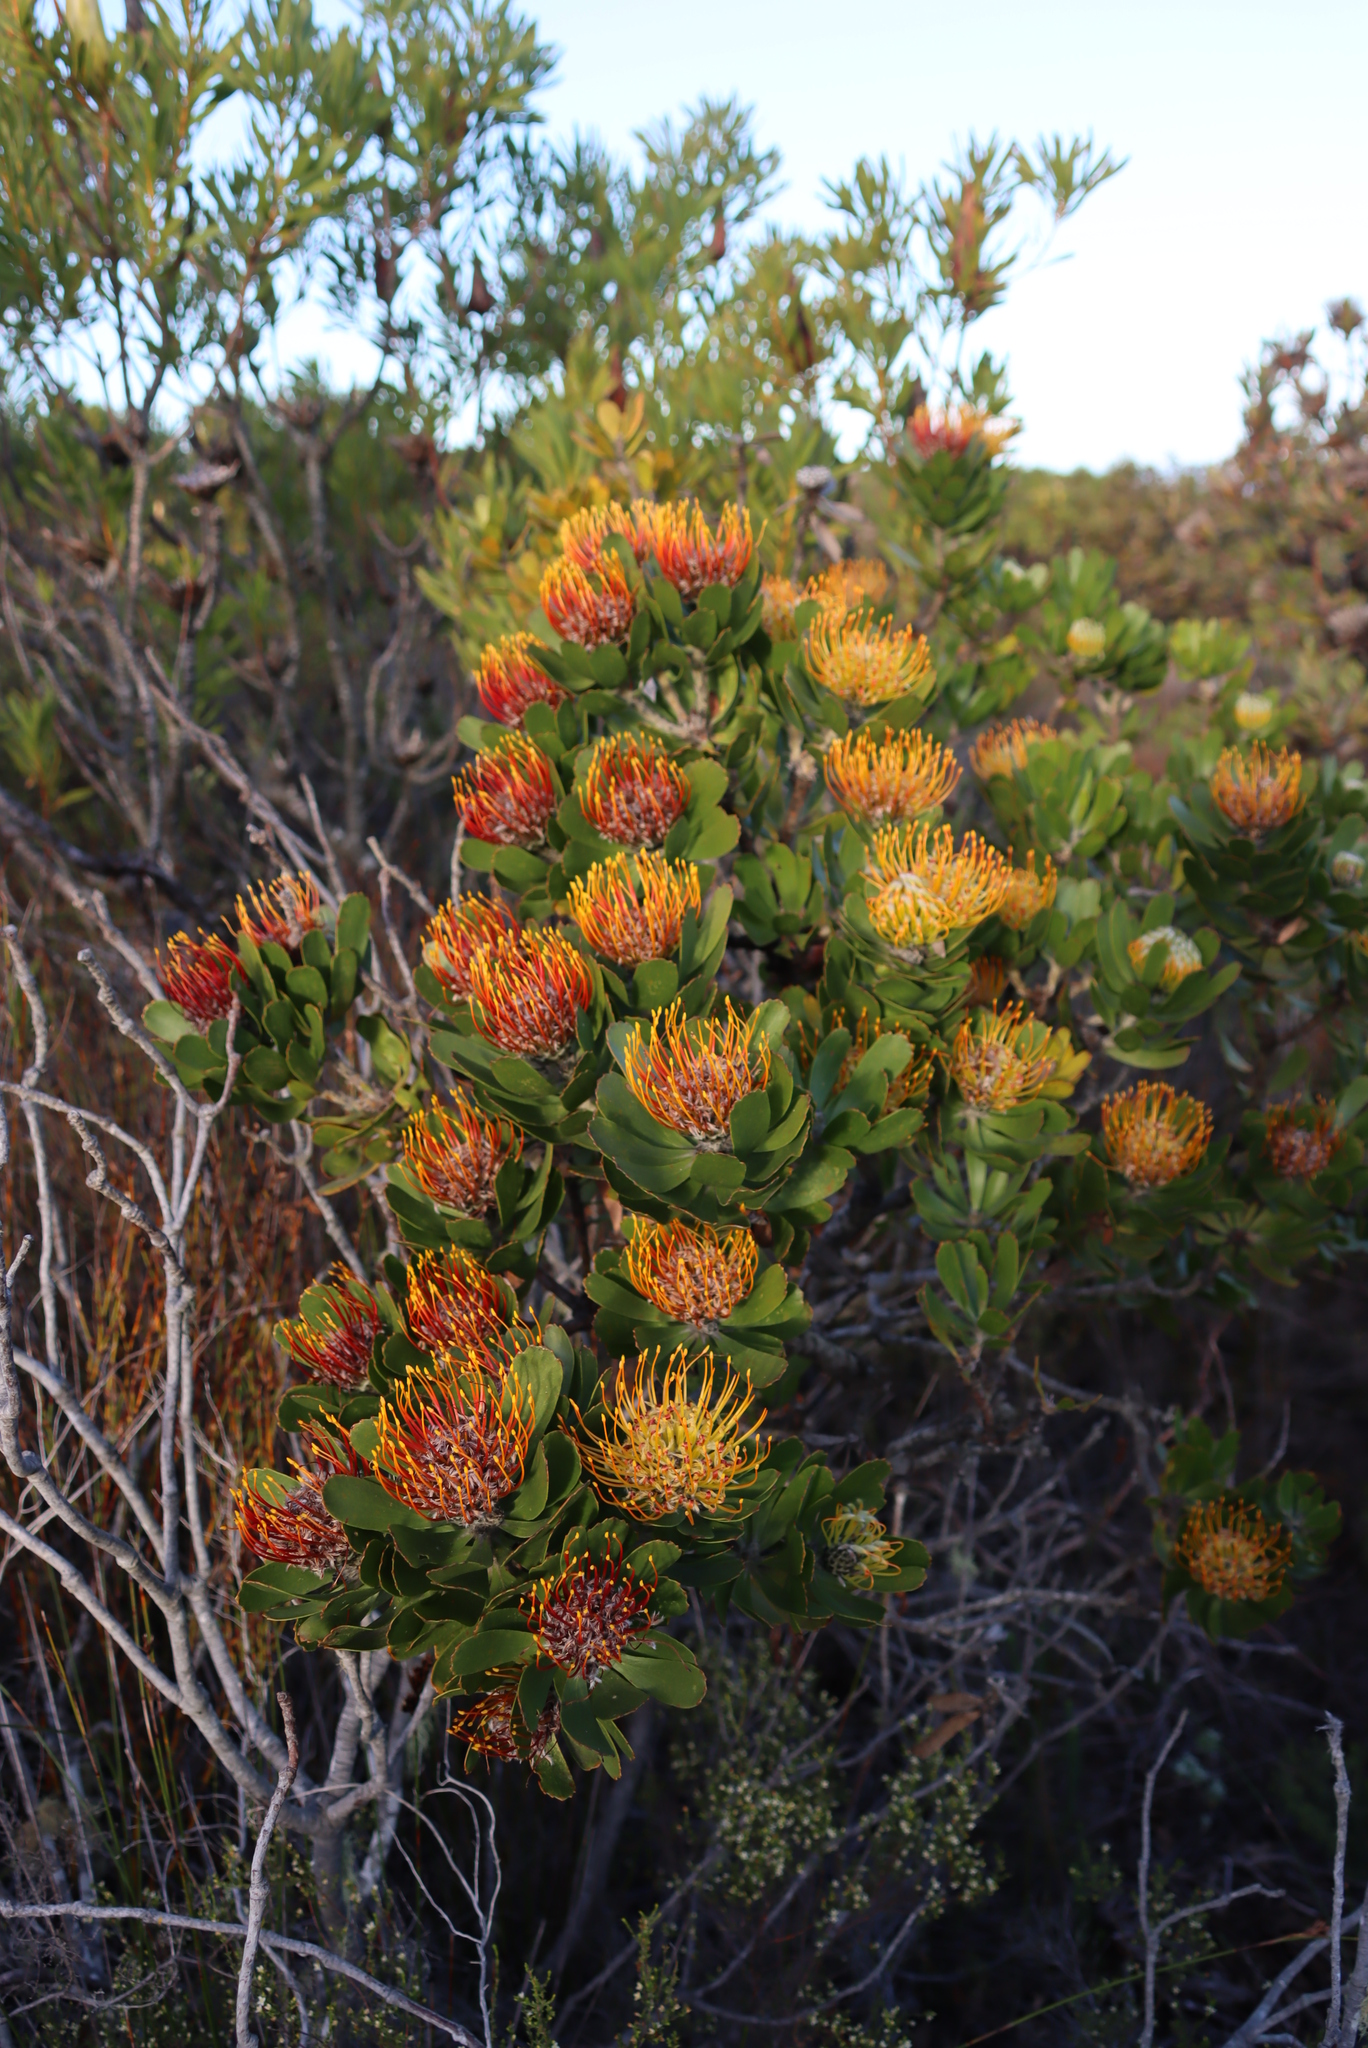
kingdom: Plantae
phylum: Tracheophyta
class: Magnoliopsida
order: Proteales
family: Proteaceae
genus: Leucospermum
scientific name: Leucospermum praecox
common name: Mossel bay pincushion
